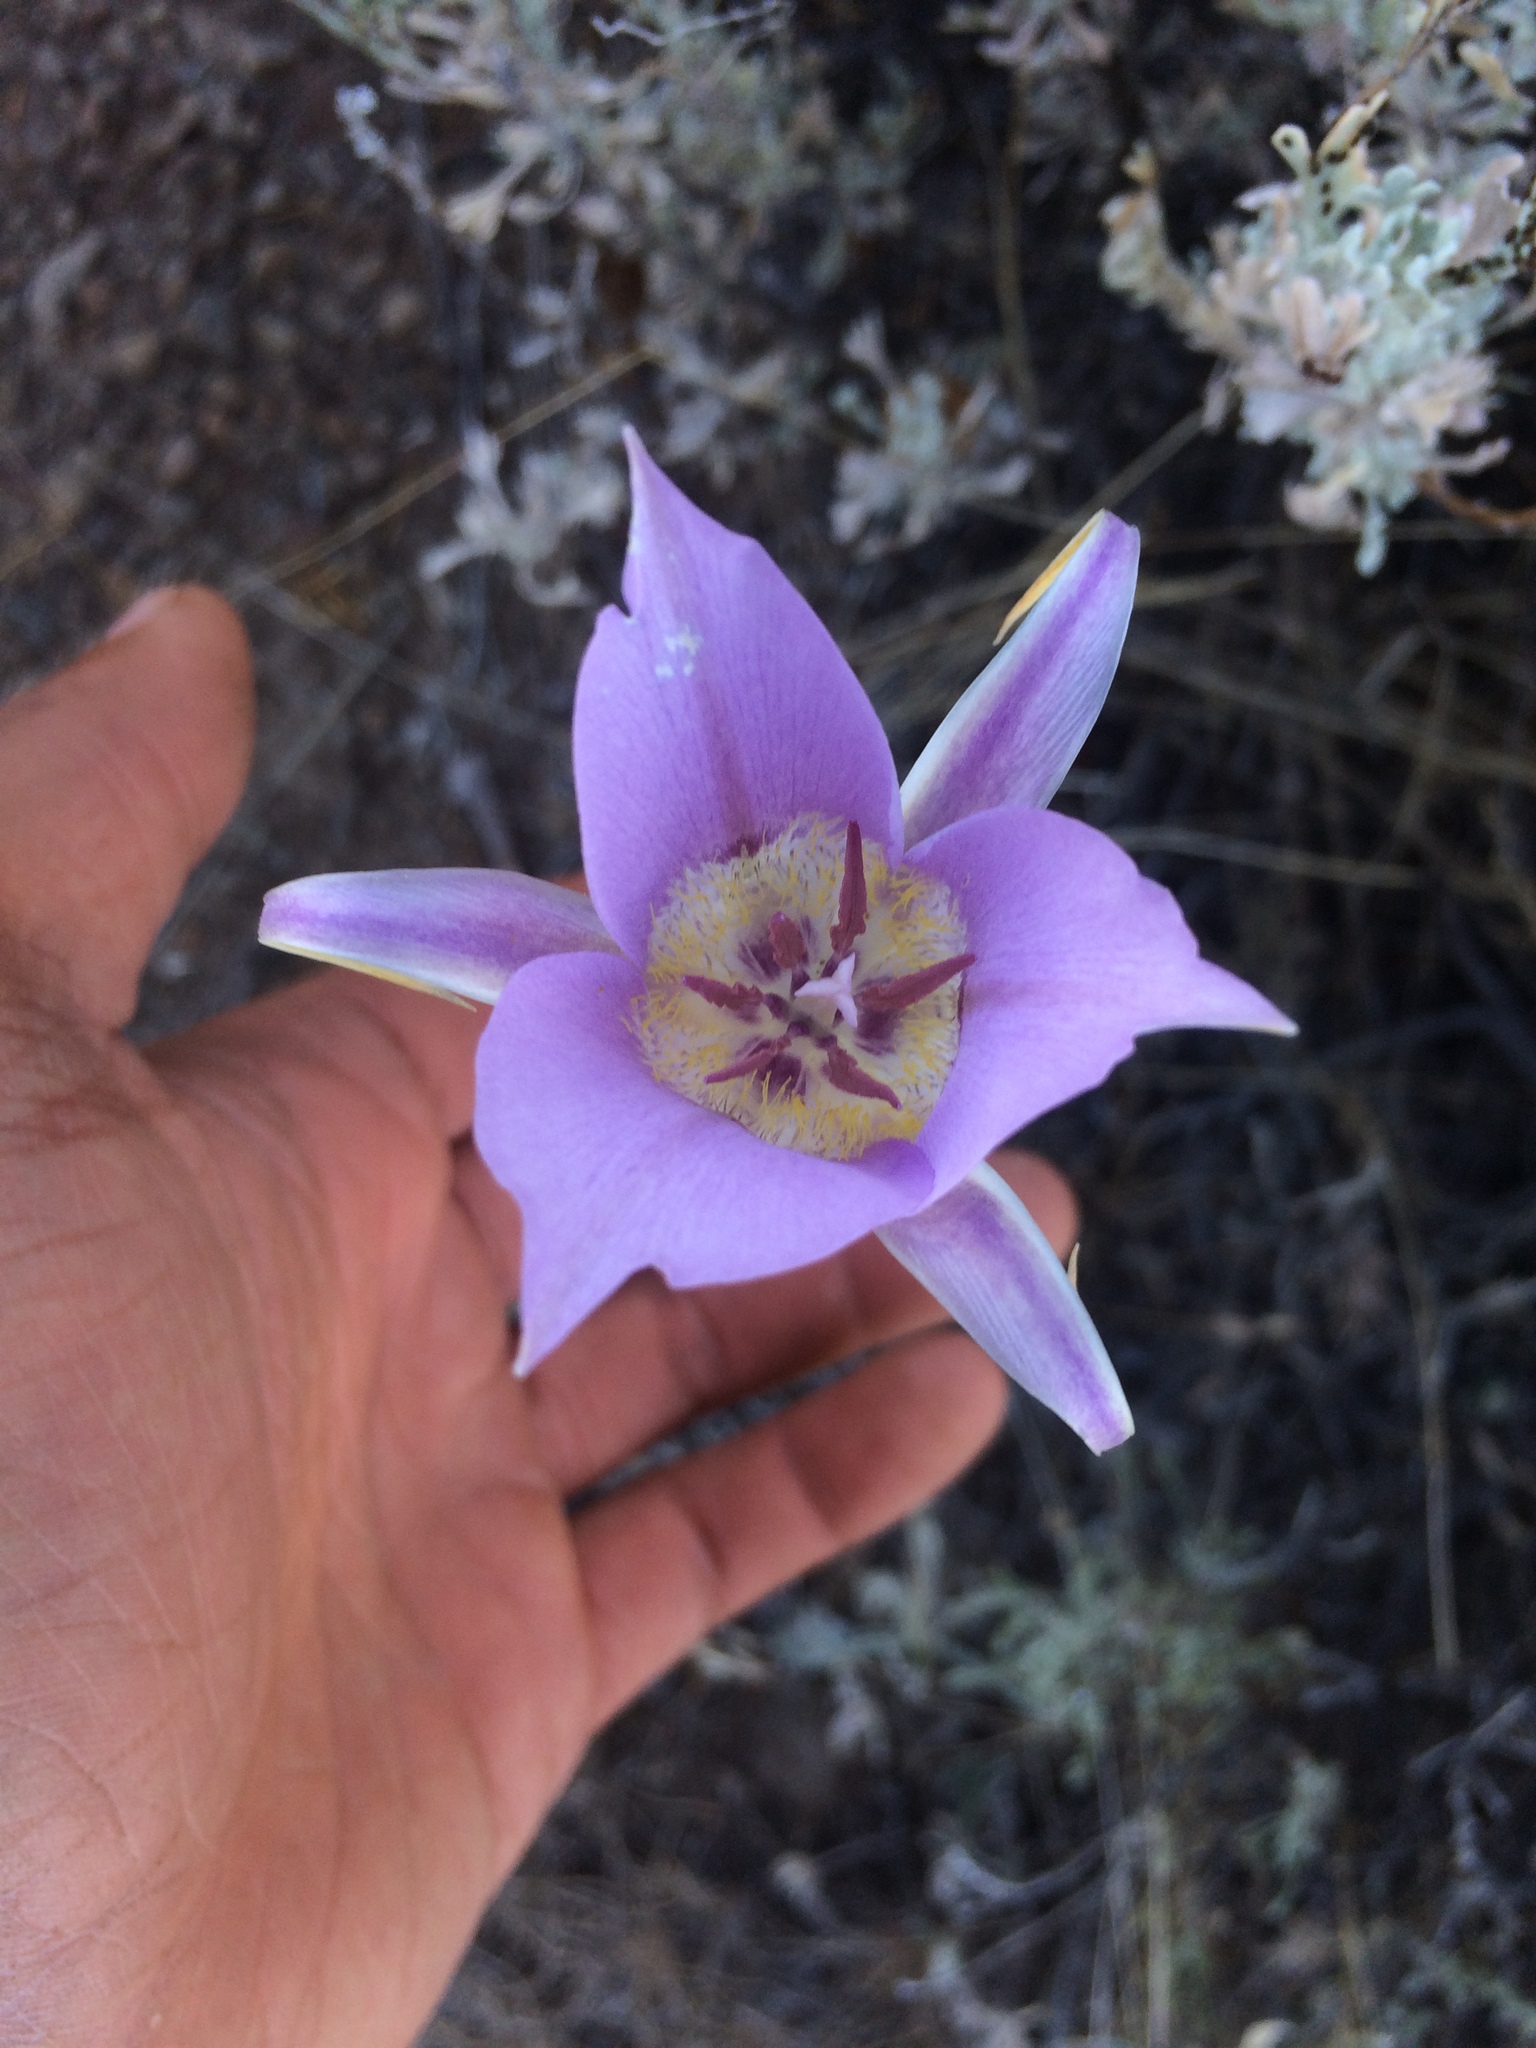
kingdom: Plantae
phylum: Tracheophyta
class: Liliopsida
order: Liliales
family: Liliaceae
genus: Calochortus
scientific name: Calochortus macrocarpus
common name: Green-band mariposa lily
